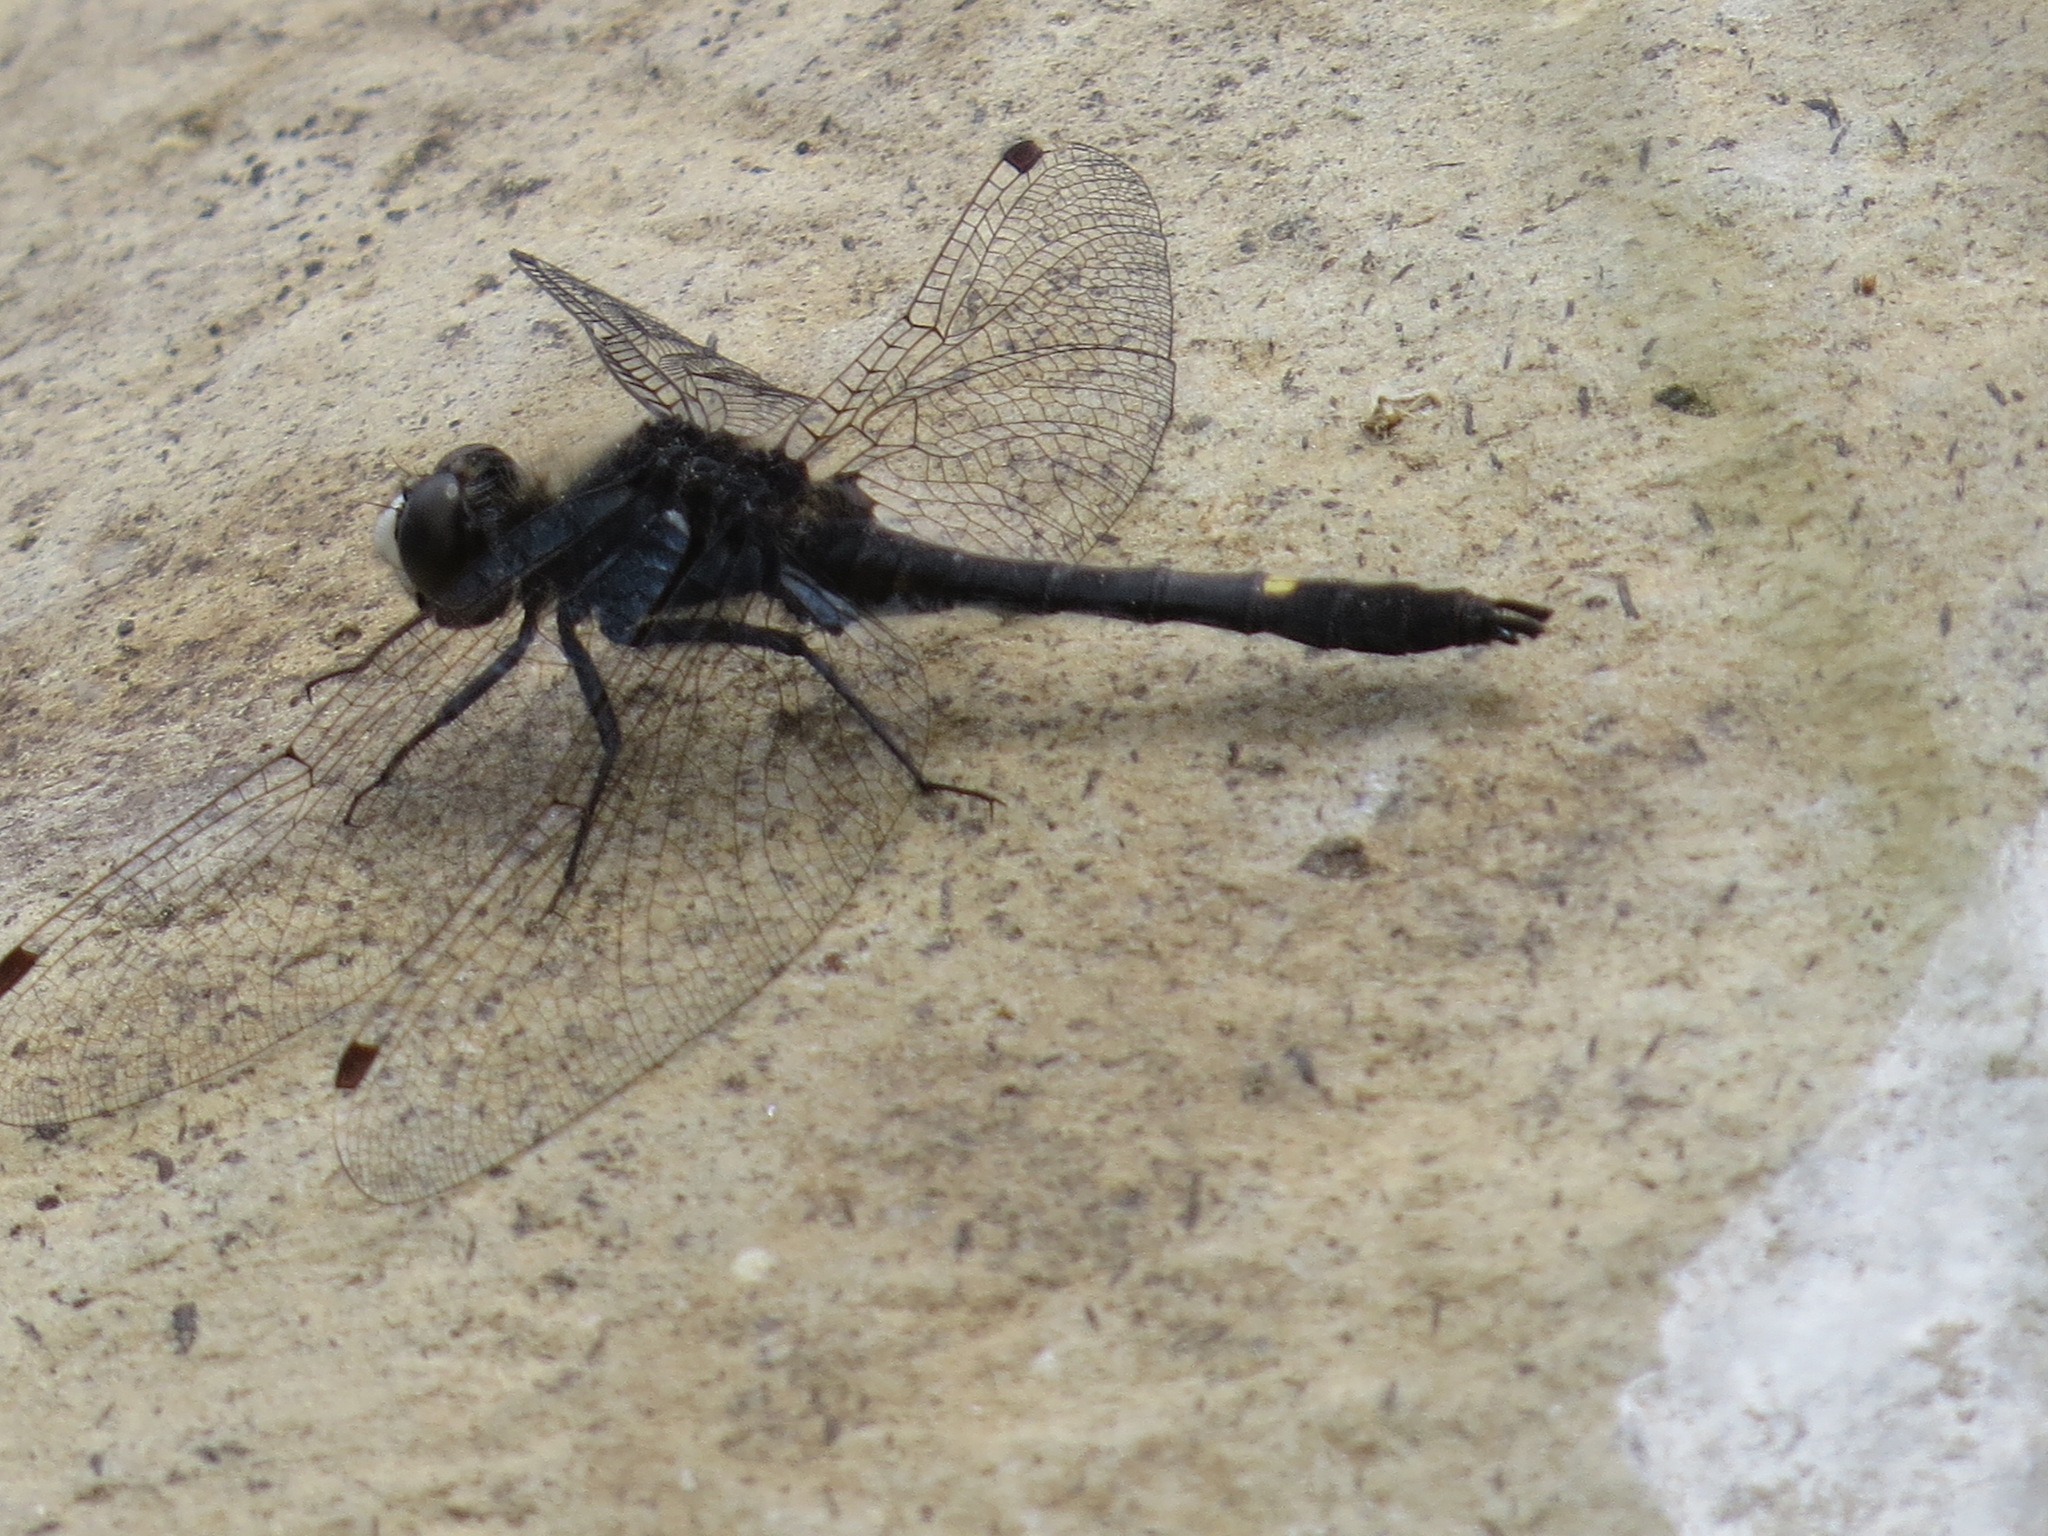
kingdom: Animalia
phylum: Arthropoda
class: Insecta
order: Odonata
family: Libellulidae
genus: Leucorrhinia
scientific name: Leucorrhinia intacta
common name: Dot-tailed whiteface
